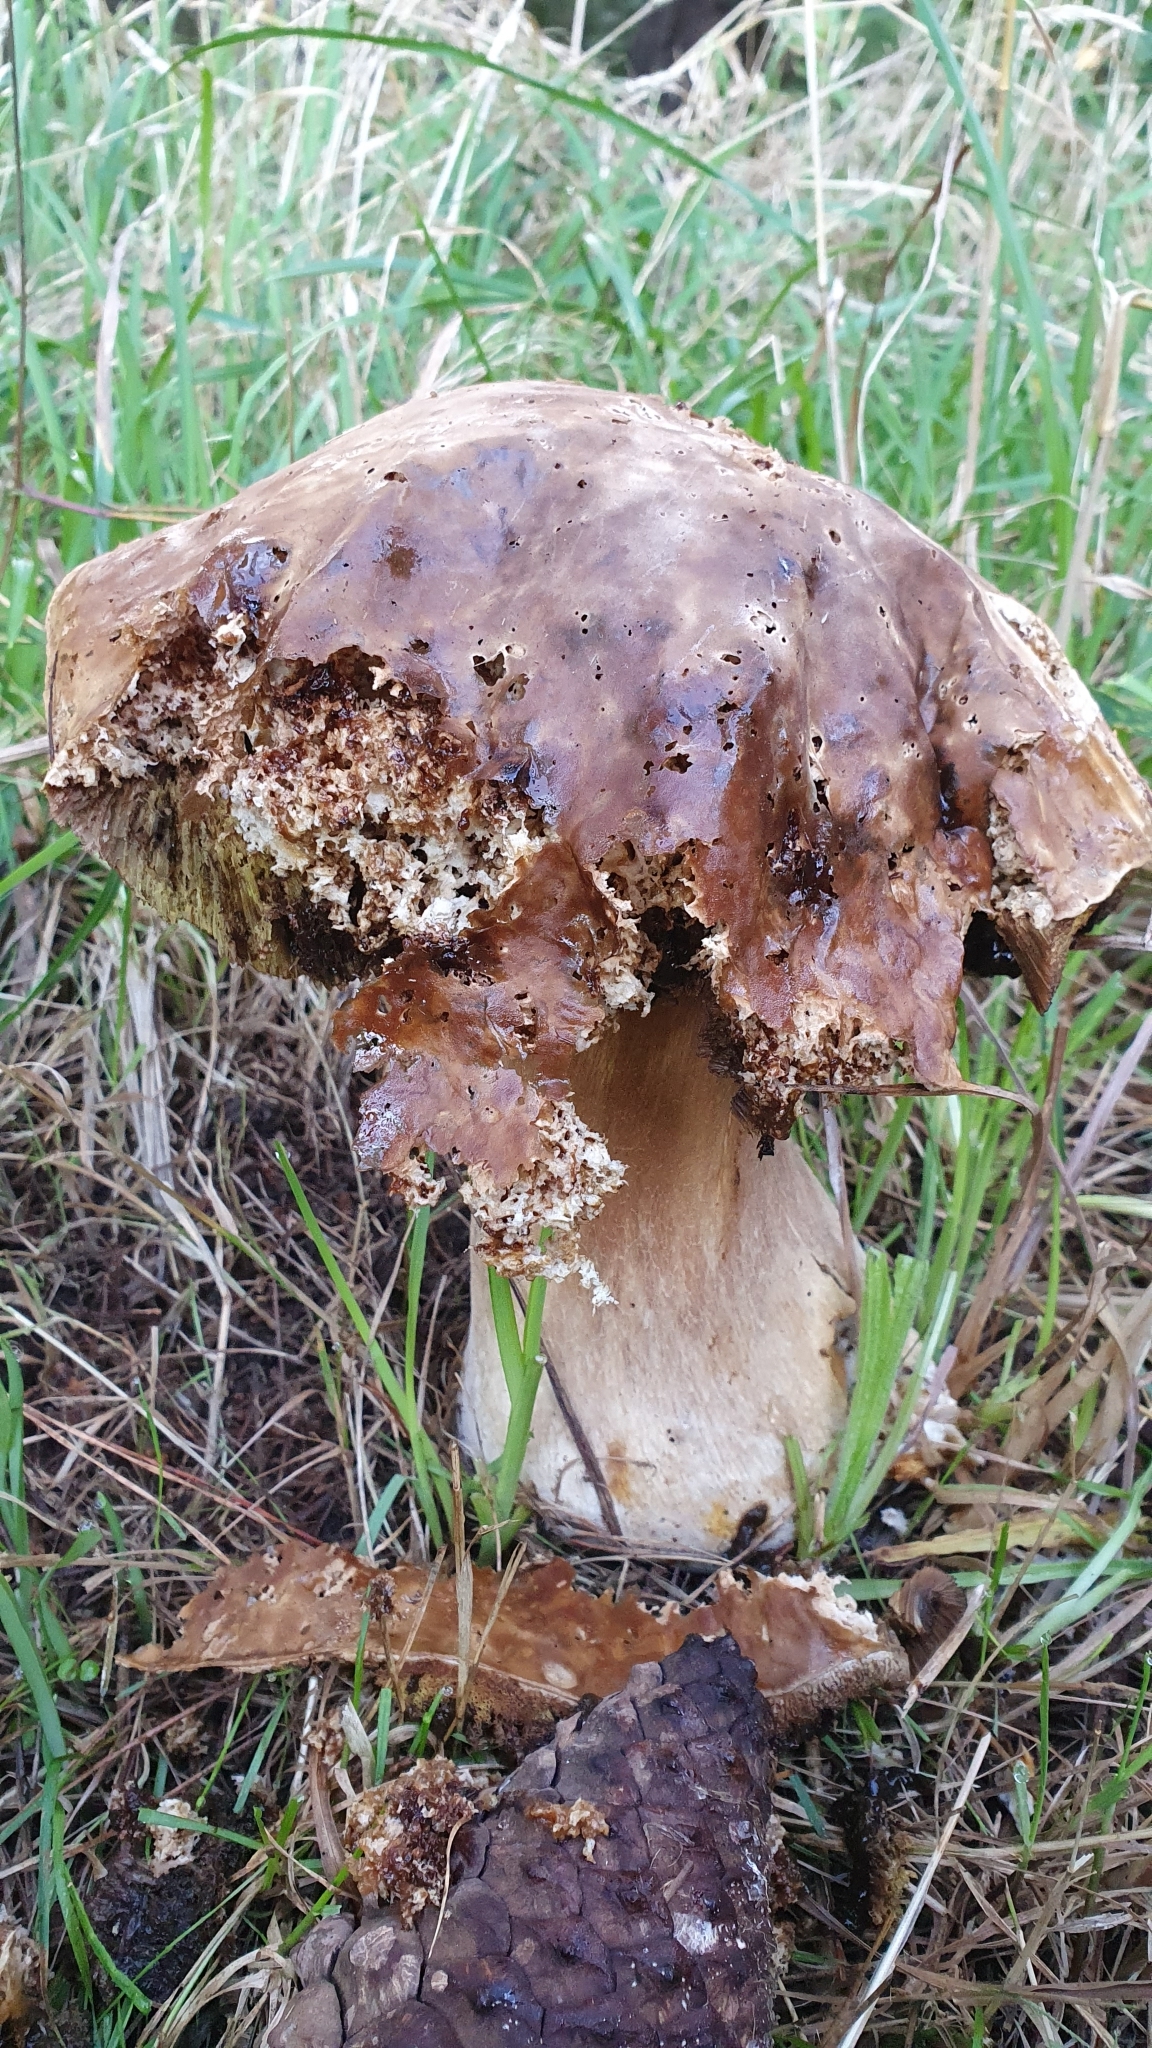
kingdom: Fungi
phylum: Basidiomycota
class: Agaricomycetes
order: Boletales
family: Boletaceae
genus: Boletus
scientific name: Boletus edulis
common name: Cep
